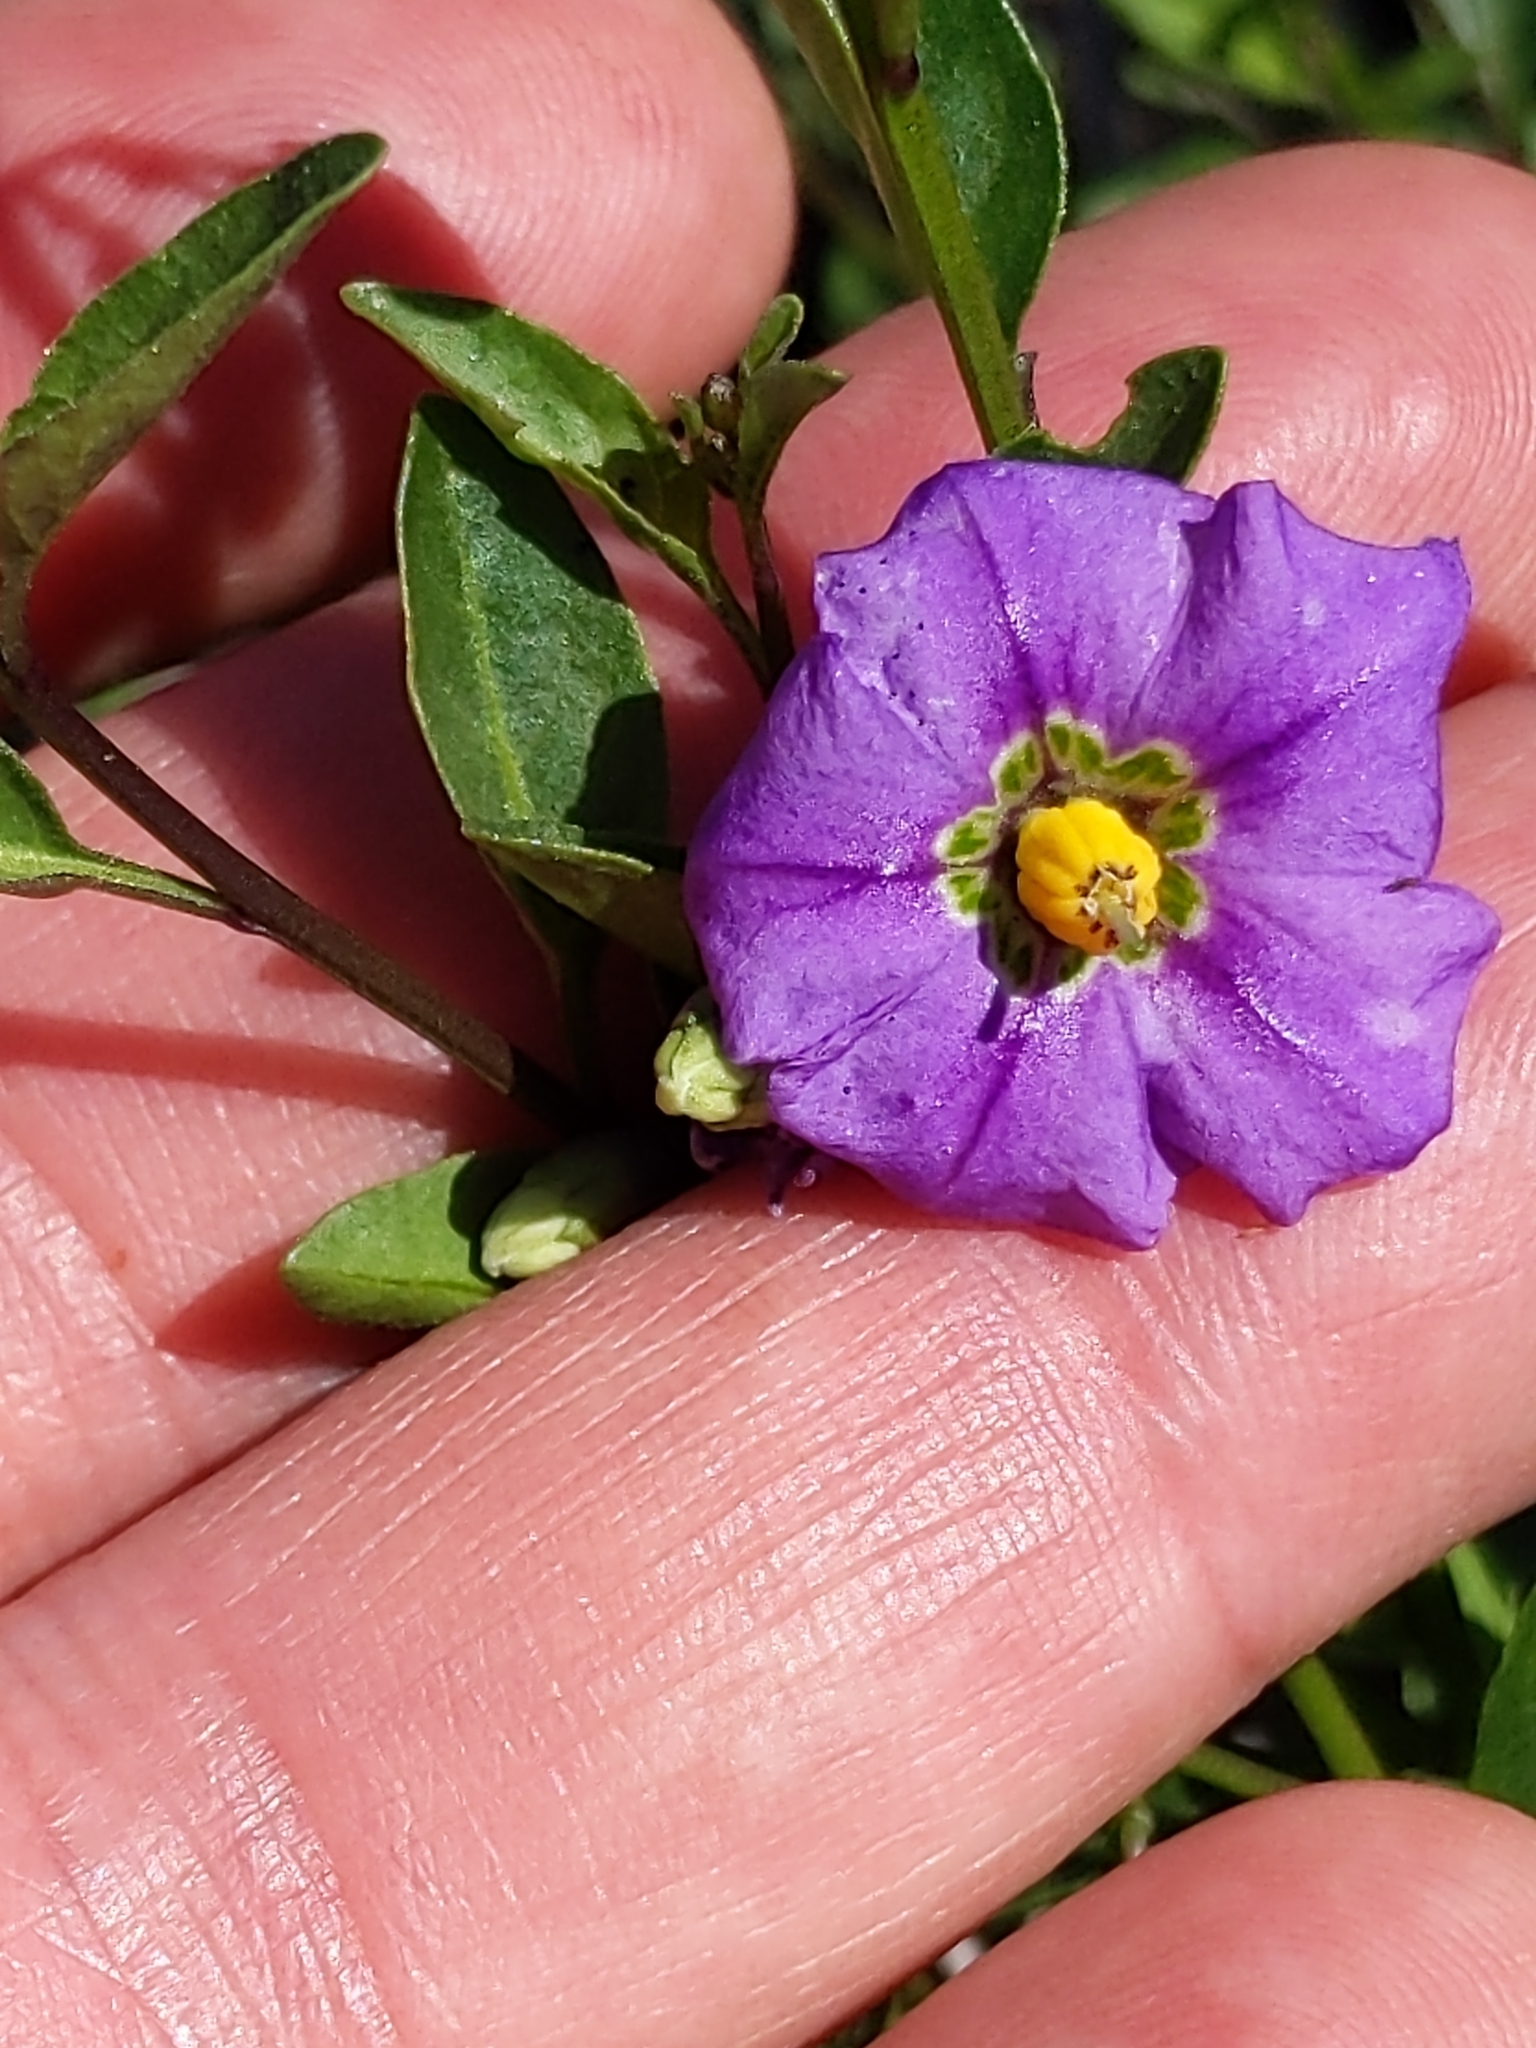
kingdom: Plantae
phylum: Tracheophyta
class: Magnoliopsida
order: Solanales
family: Solanaceae
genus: Solanum
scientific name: Solanum umbelliferum
